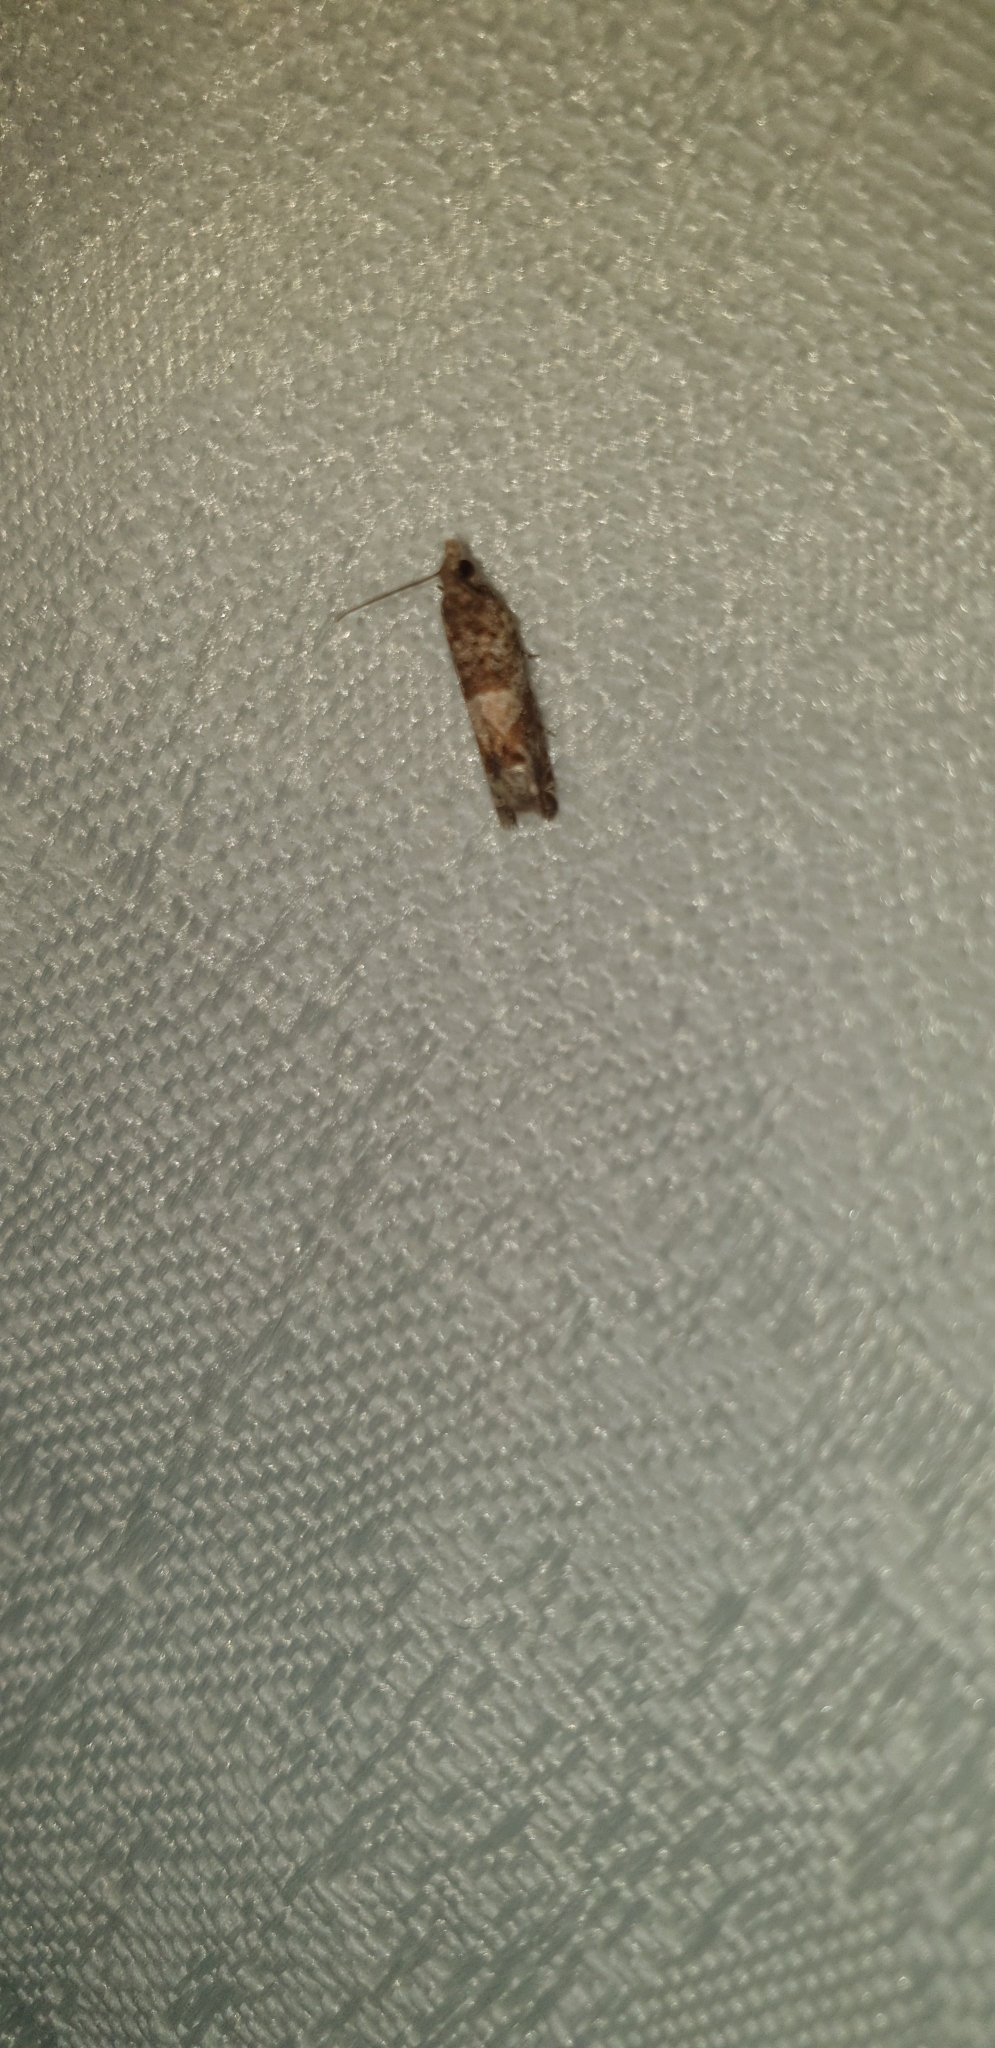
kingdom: Animalia
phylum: Arthropoda
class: Insecta
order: Lepidoptera
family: Tortricidae
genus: Crocidosema
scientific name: Crocidosema plebejana
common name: Southern bell
